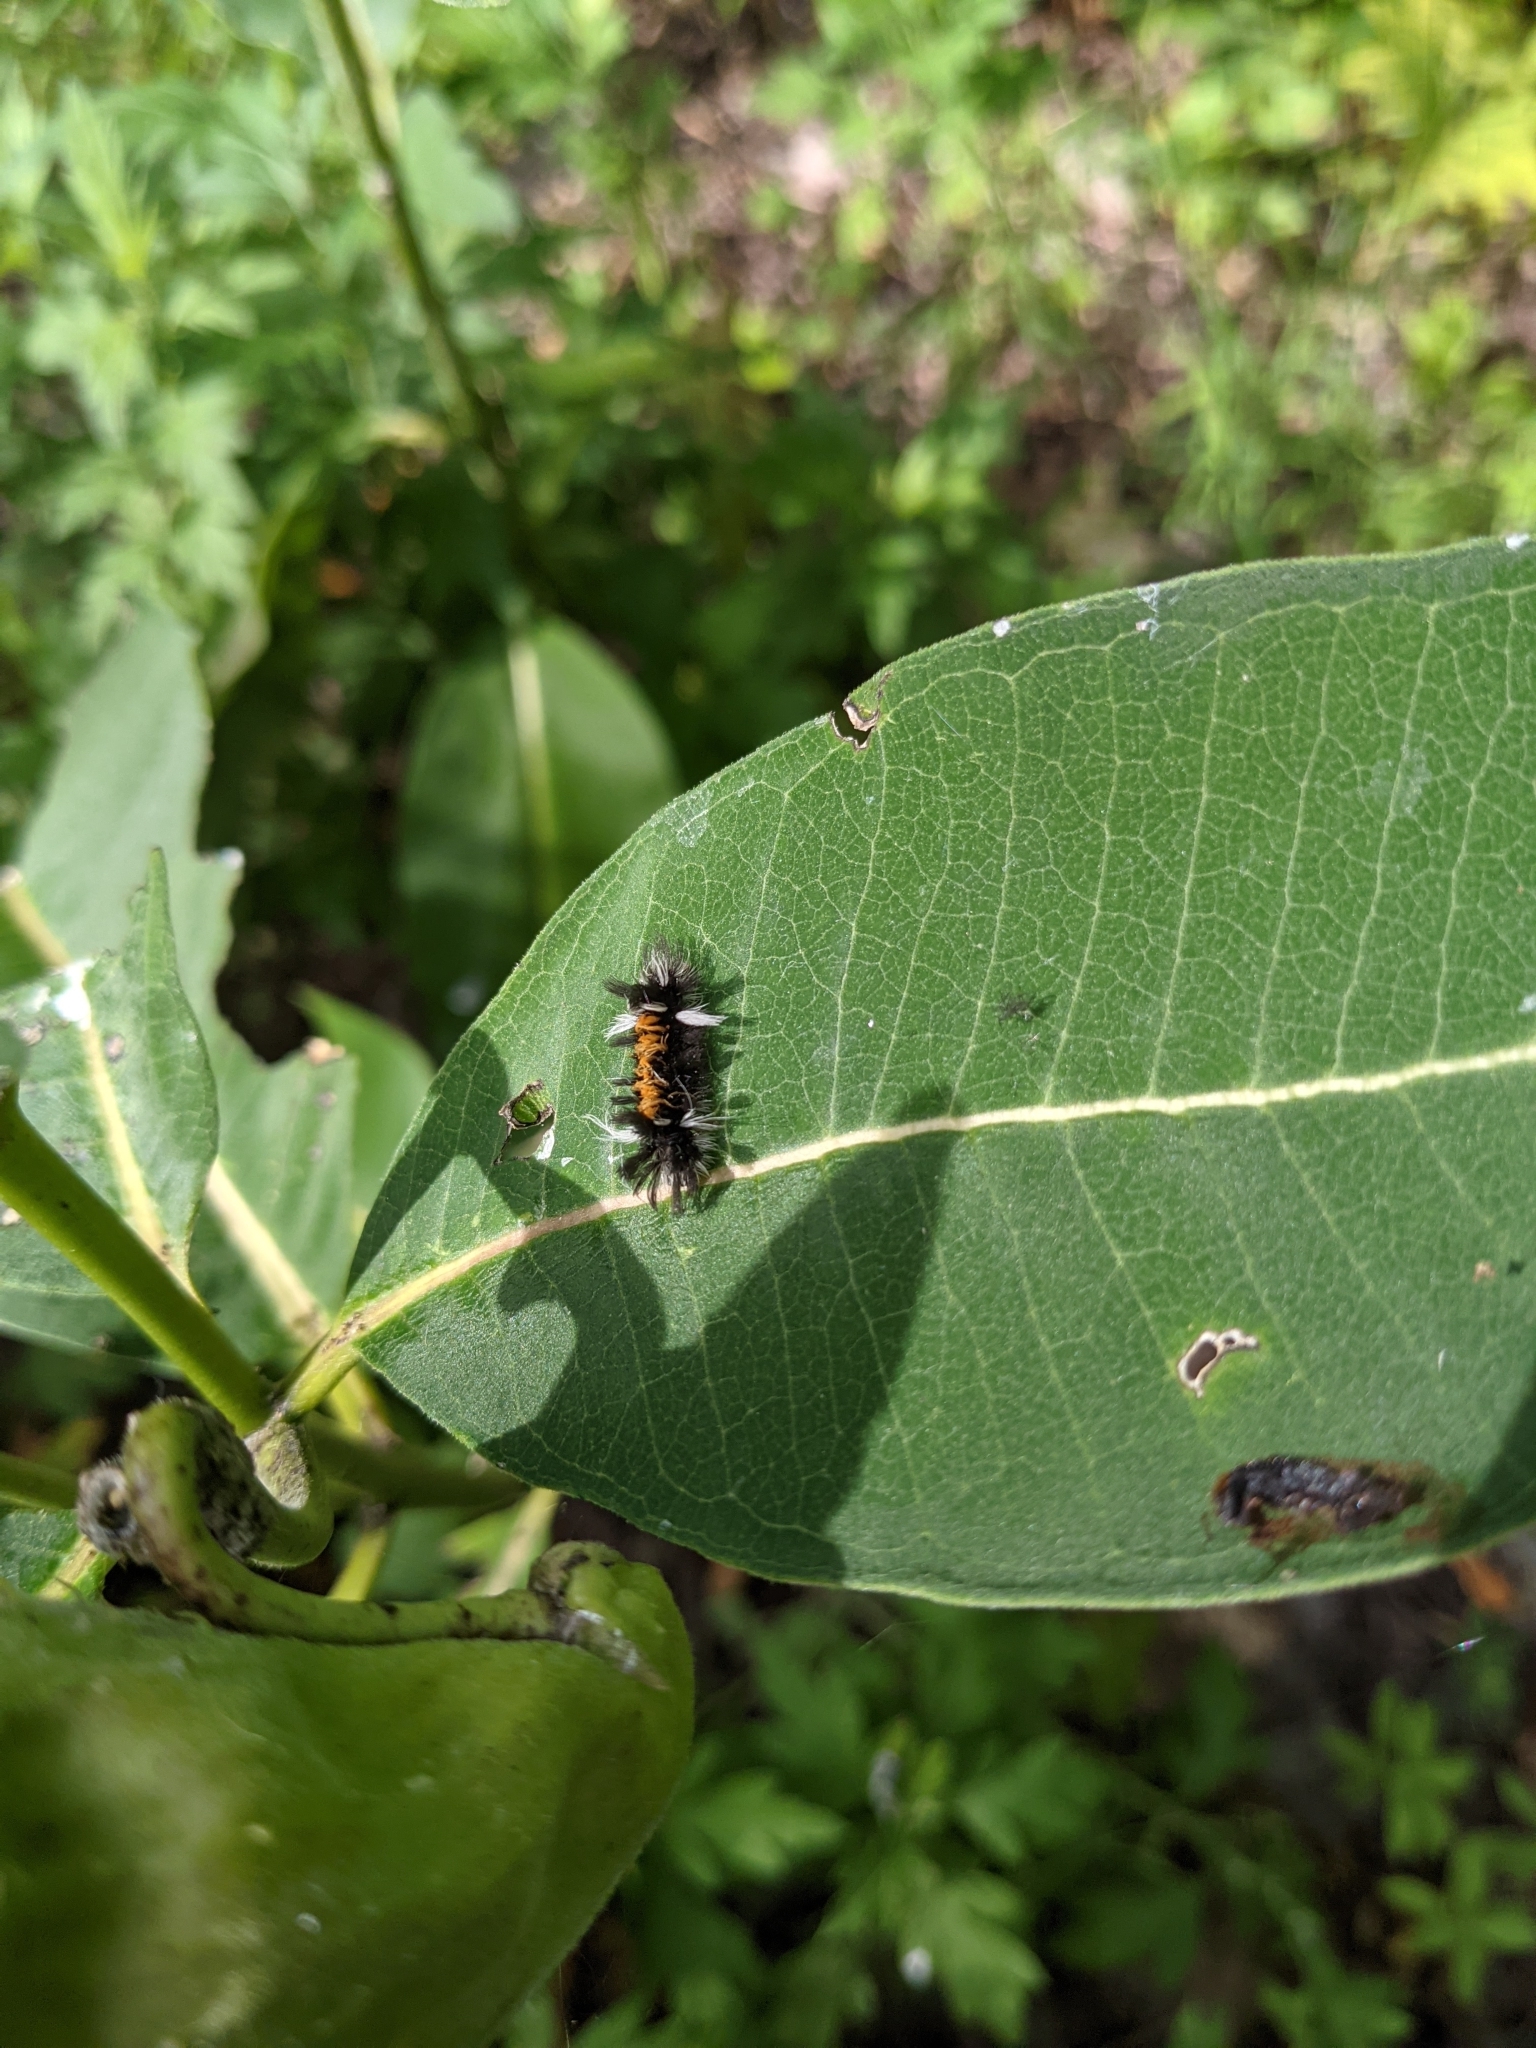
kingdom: Animalia
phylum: Arthropoda
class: Insecta
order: Lepidoptera
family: Erebidae
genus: Euchaetes
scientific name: Euchaetes egle
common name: Milkweed tussock moth
